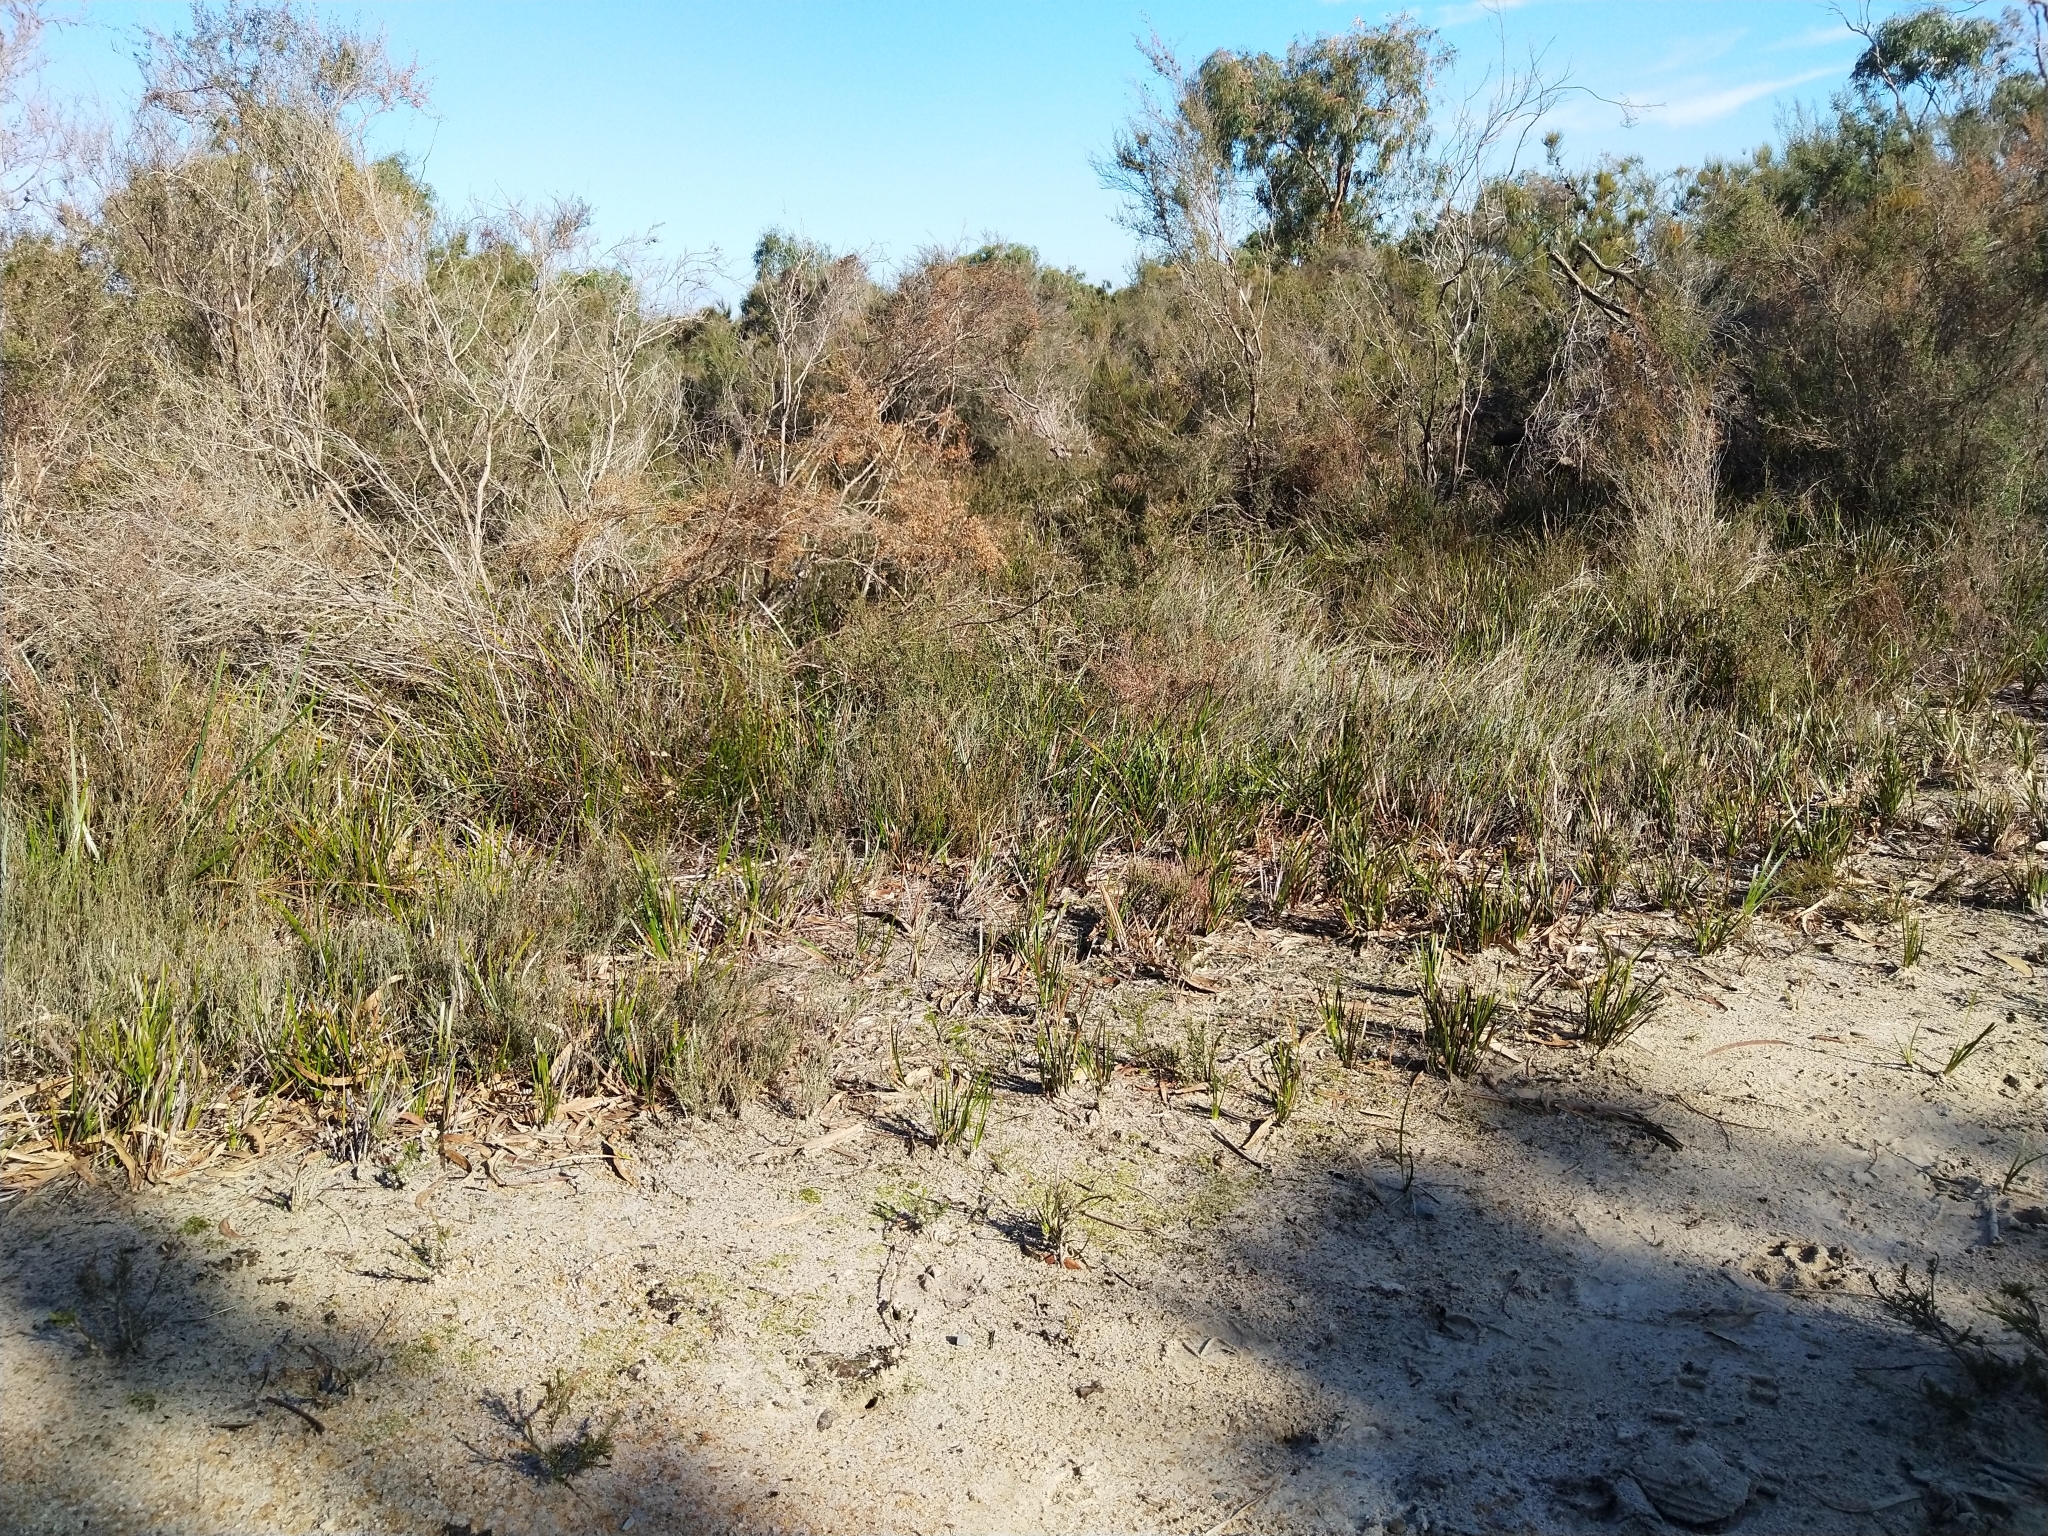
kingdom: Plantae
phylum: Tracheophyta
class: Liliopsida
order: Asparagales
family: Orchidaceae
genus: Pyrorchis
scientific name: Pyrorchis nigricans
